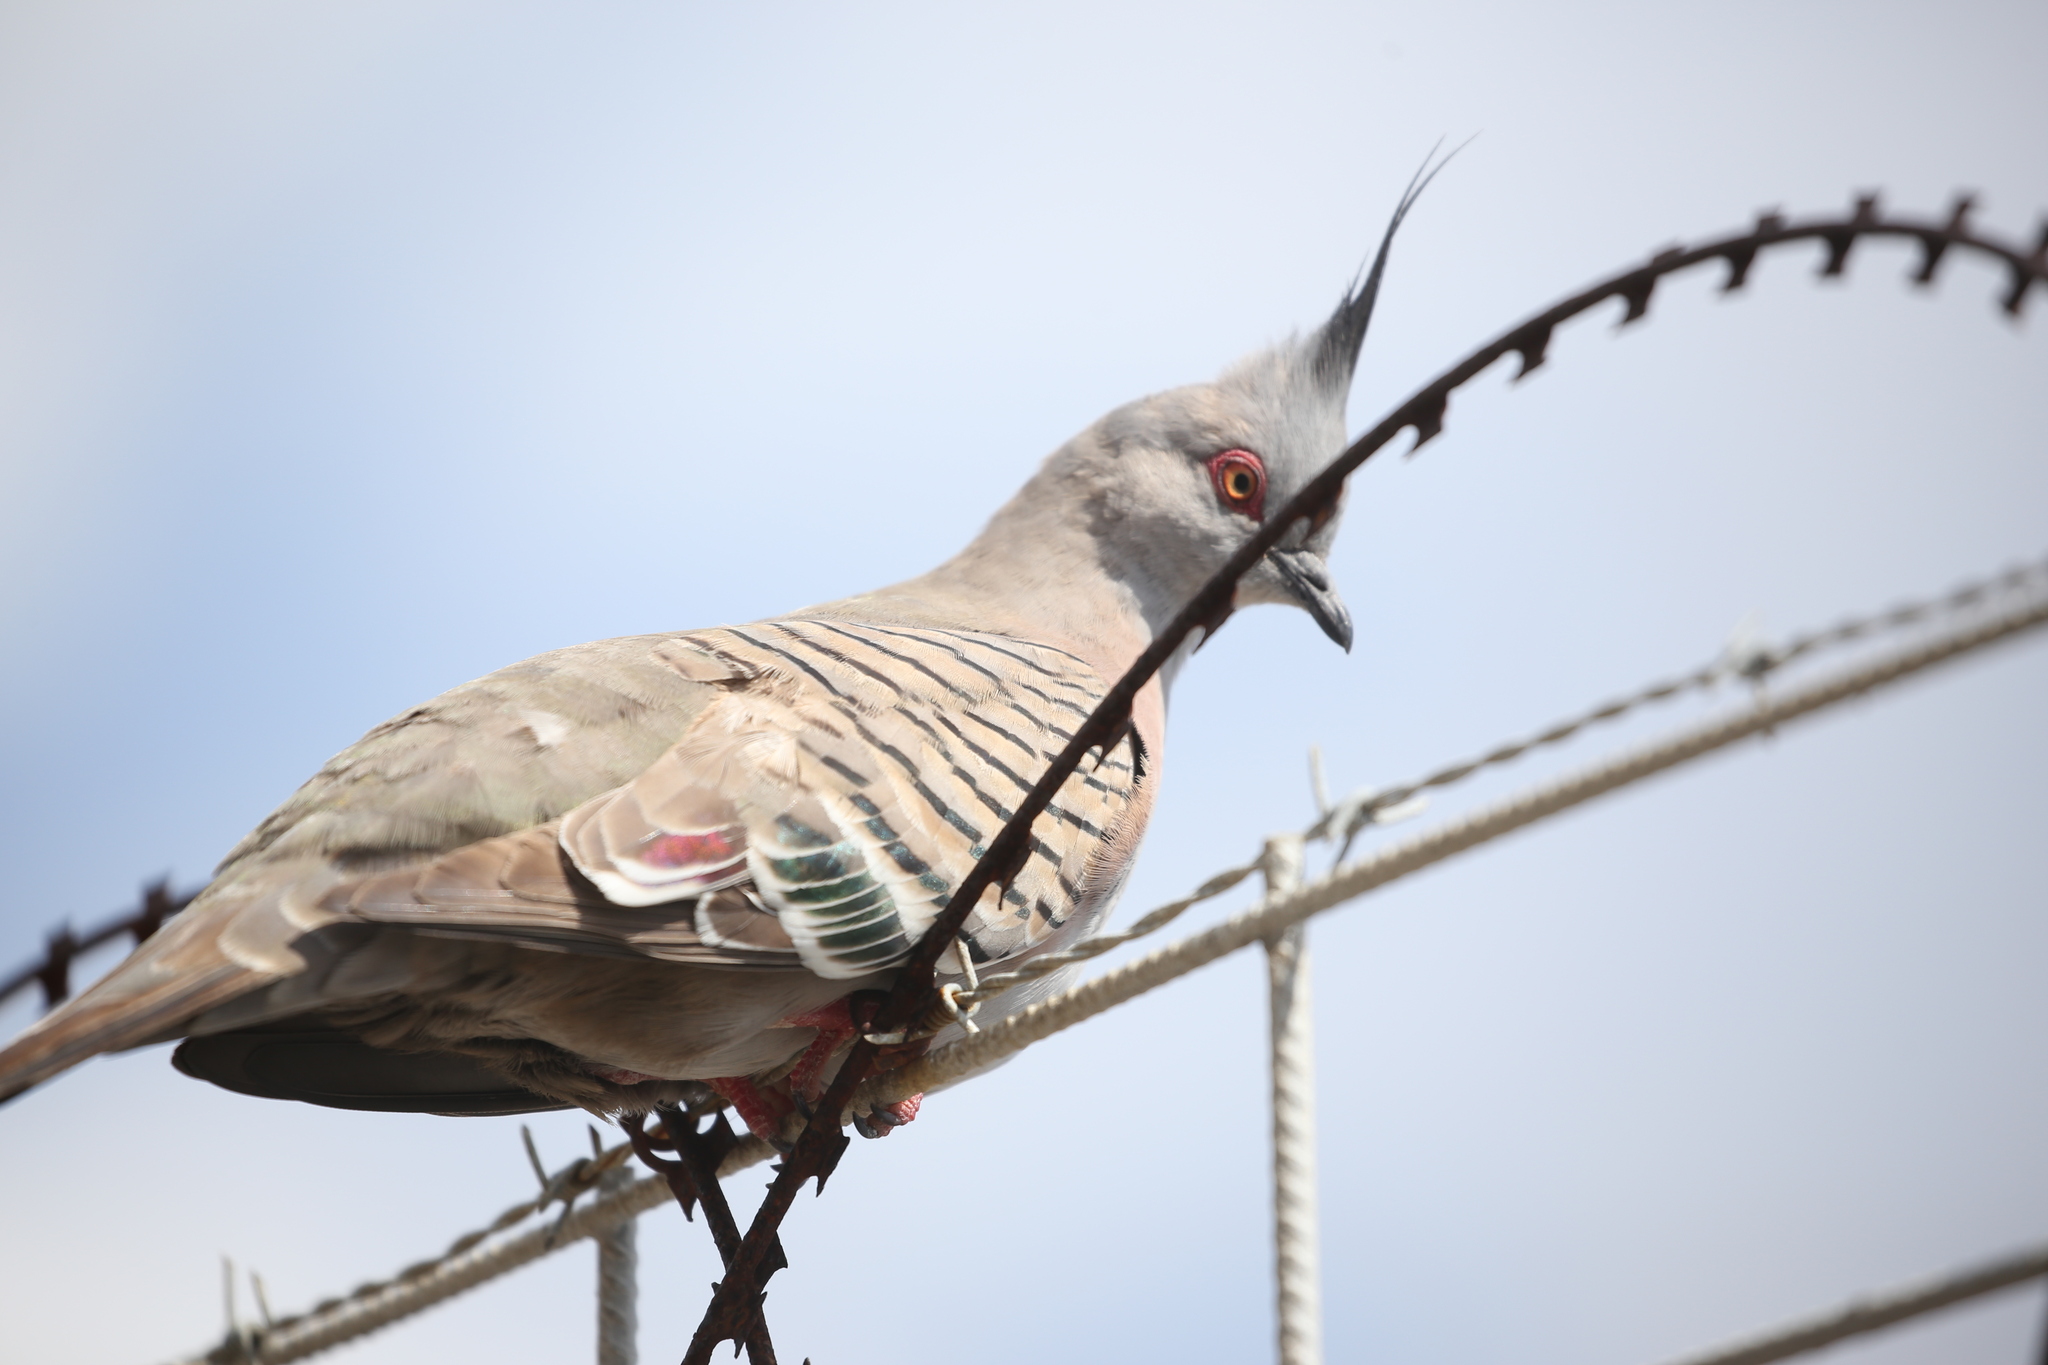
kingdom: Animalia
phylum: Chordata
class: Aves
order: Columbiformes
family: Columbidae
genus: Ocyphaps
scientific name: Ocyphaps lophotes
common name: Crested pigeon
